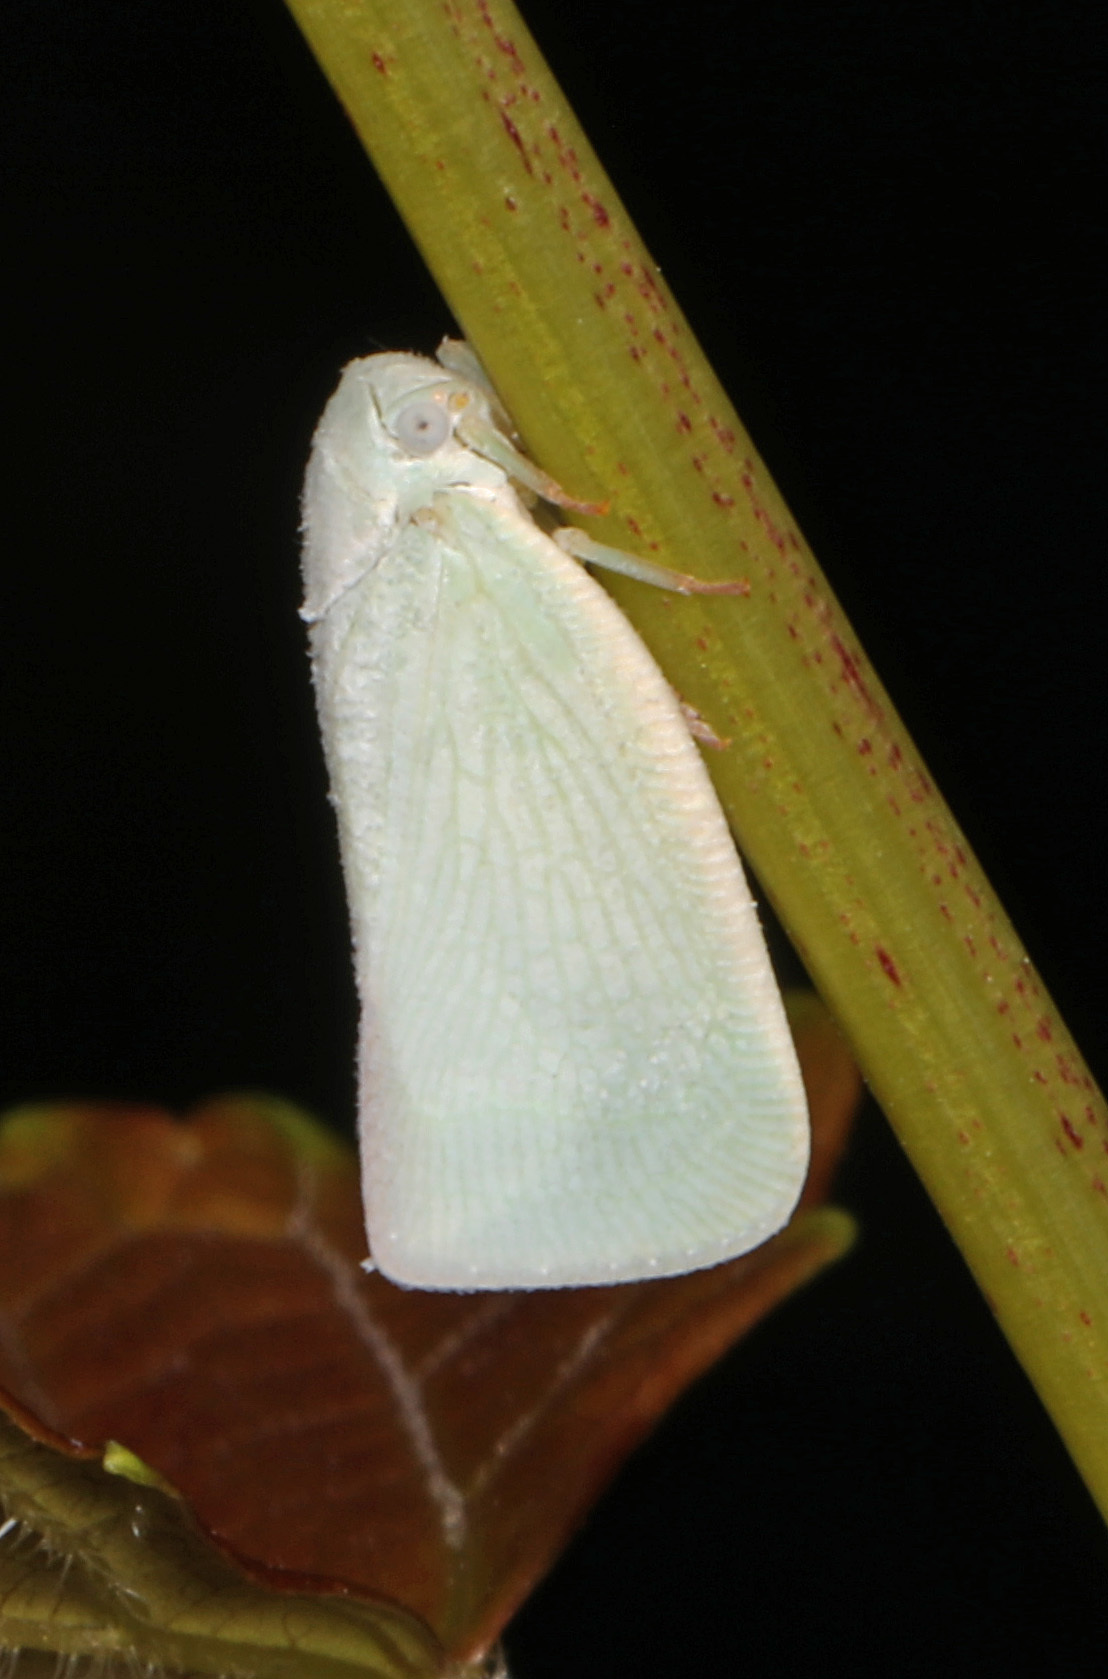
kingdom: Animalia
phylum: Arthropoda
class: Insecta
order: Hemiptera
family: Flatidae
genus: Flatormenis
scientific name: Flatormenis proxima
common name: Northern flatid planthopper
